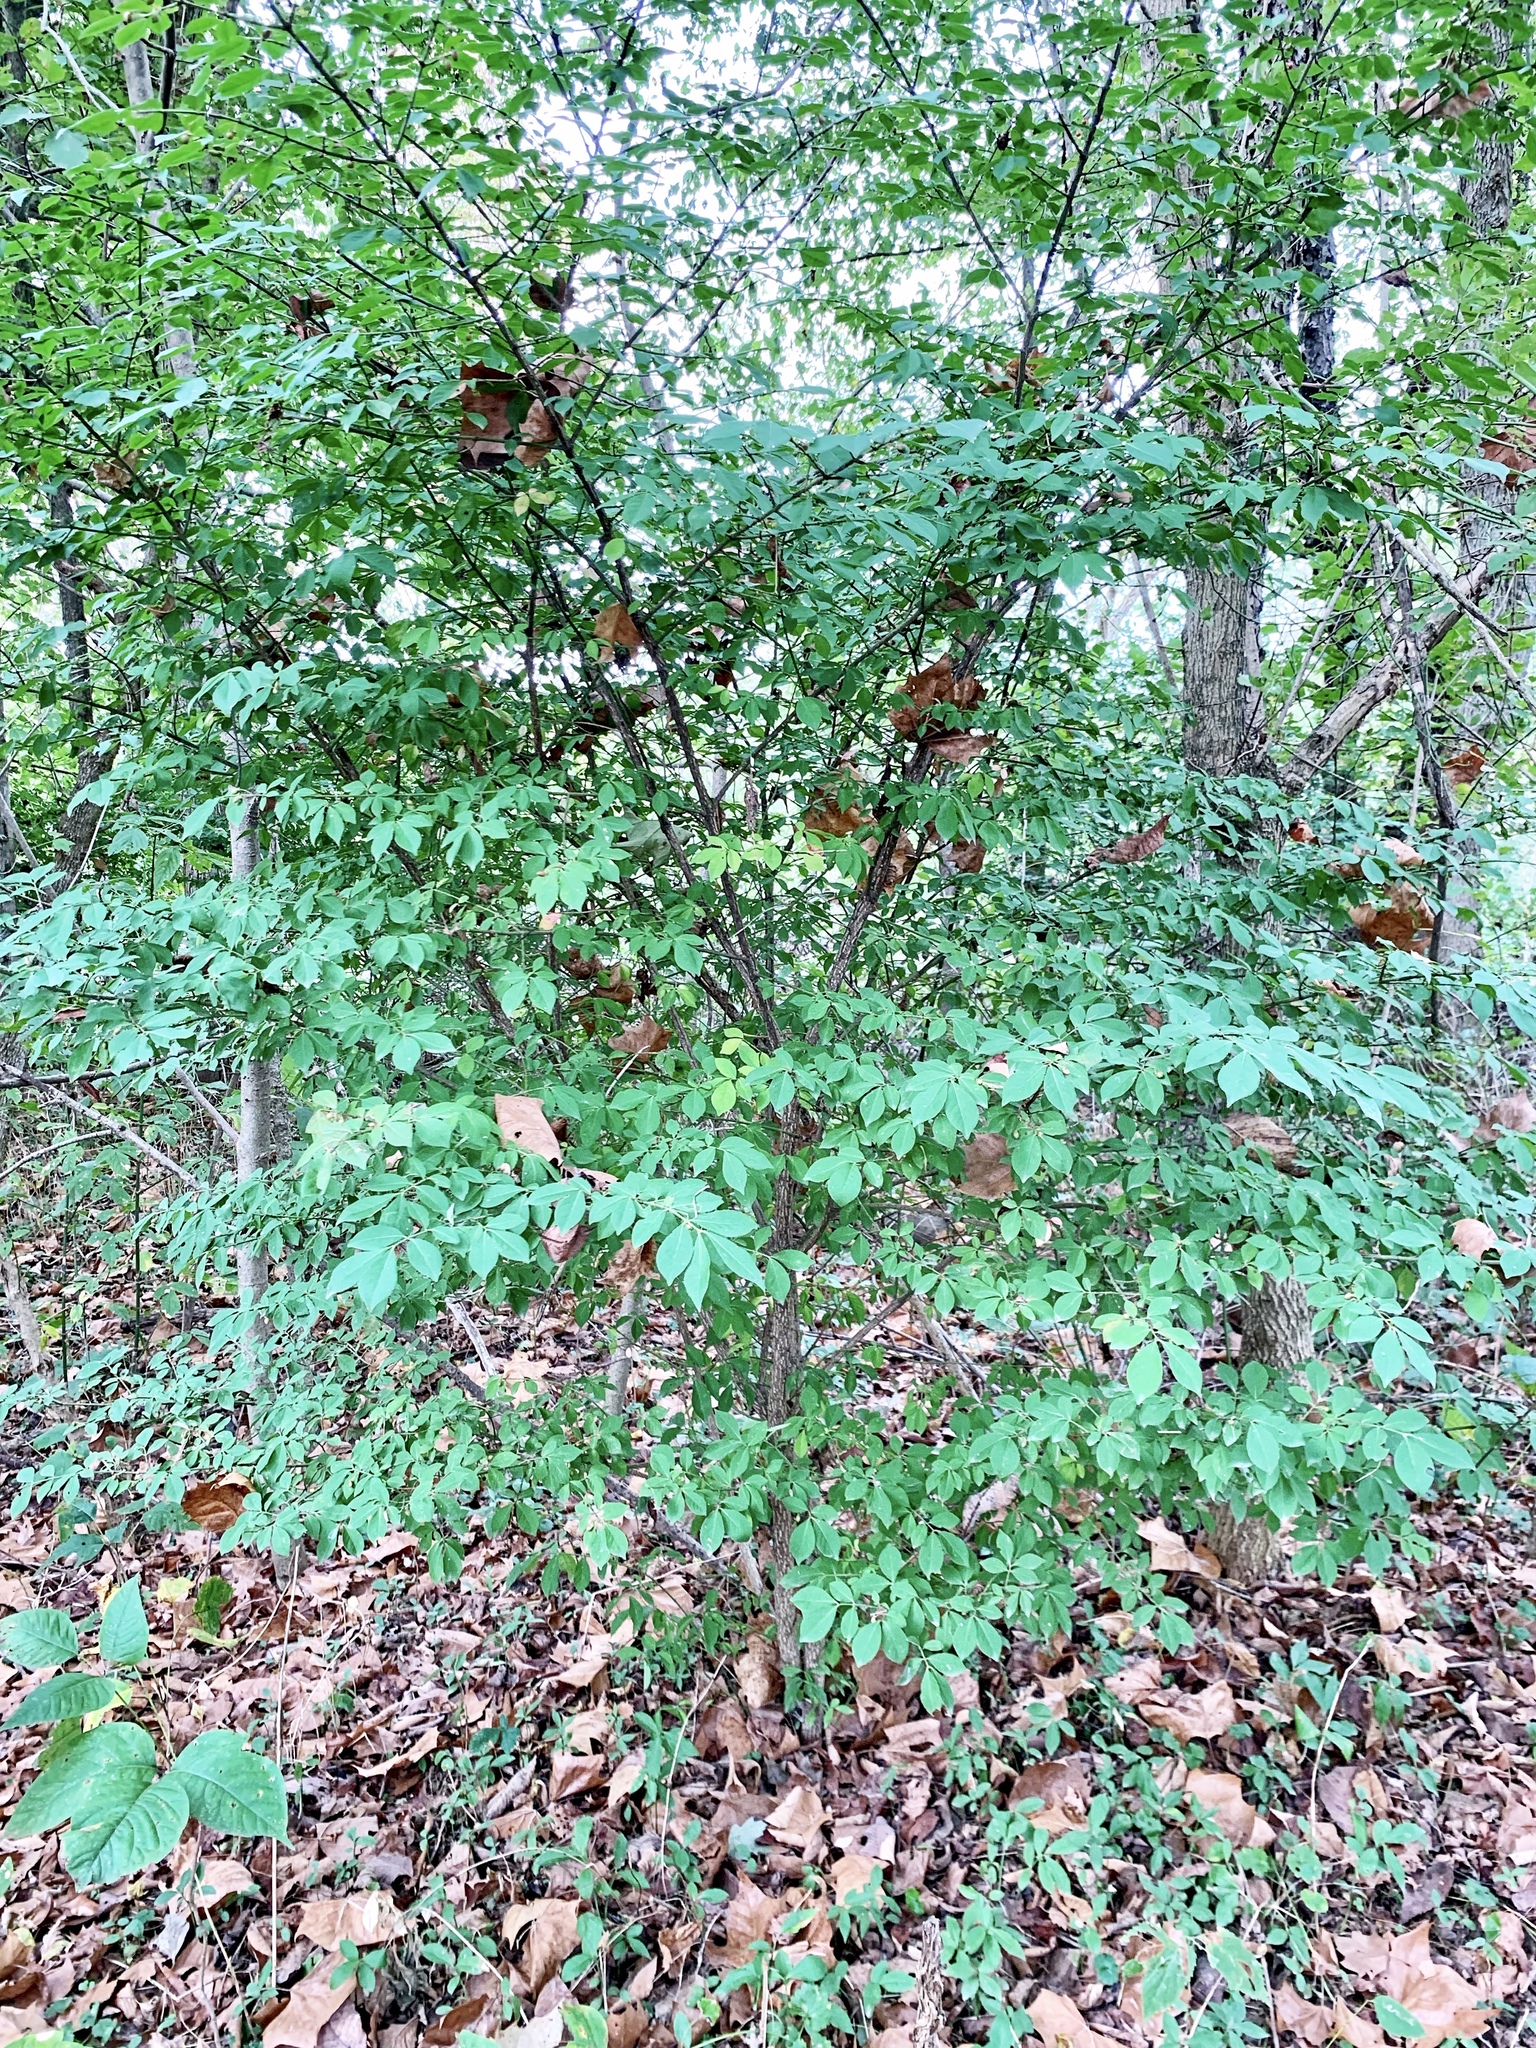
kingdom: Plantae
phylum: Tracheophyta
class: Magnoliopsida
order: Celastrales
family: Celastraceae
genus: Euonymus
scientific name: Euonymus alatus
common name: Winged euonymus
